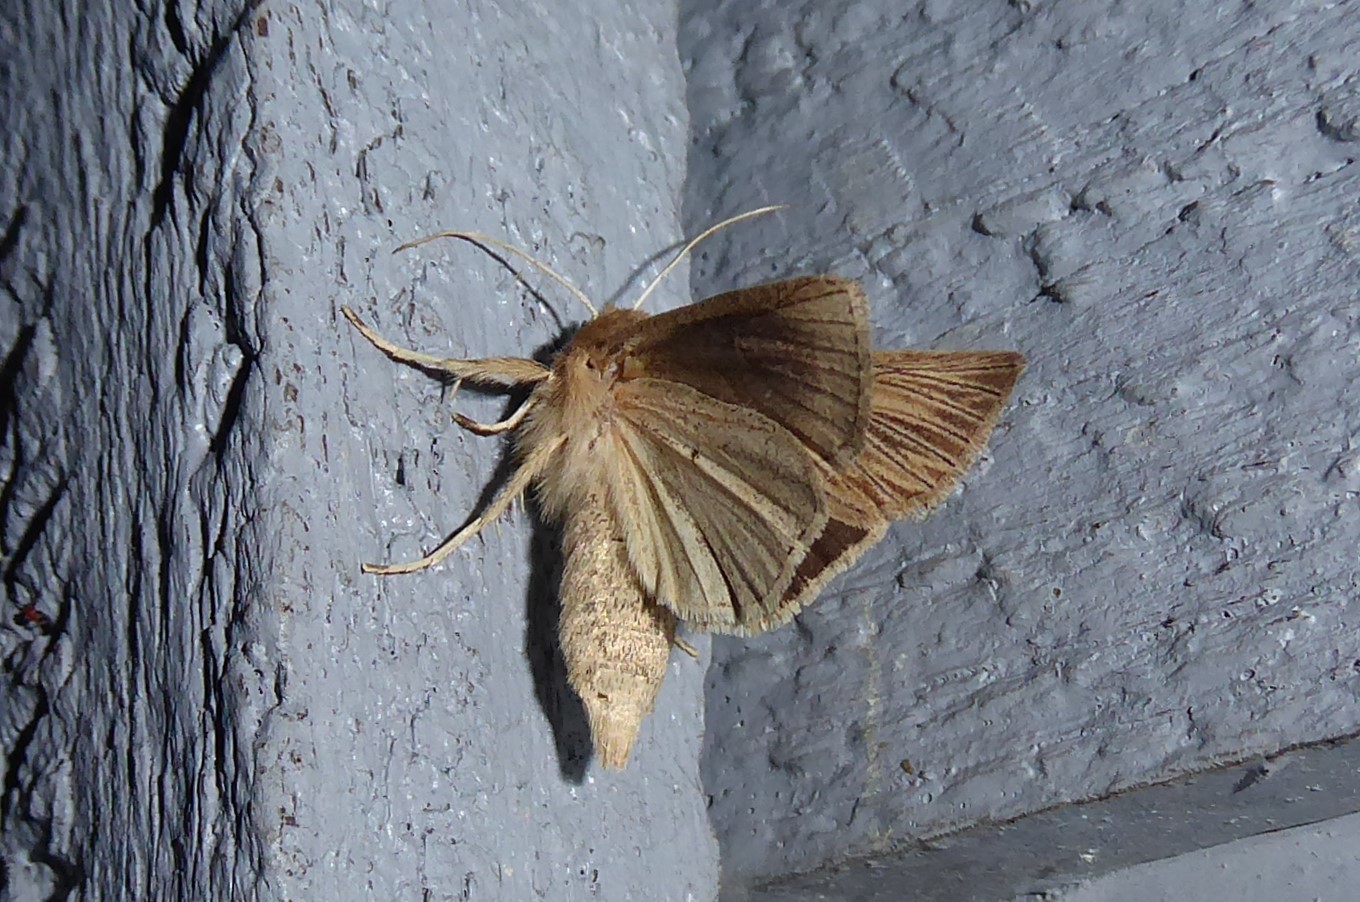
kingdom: Animalia
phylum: Arthropoda
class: Insecta
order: Lepidoptera
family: Noctuidae
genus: Ichneutica
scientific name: Ichneutica arotis
